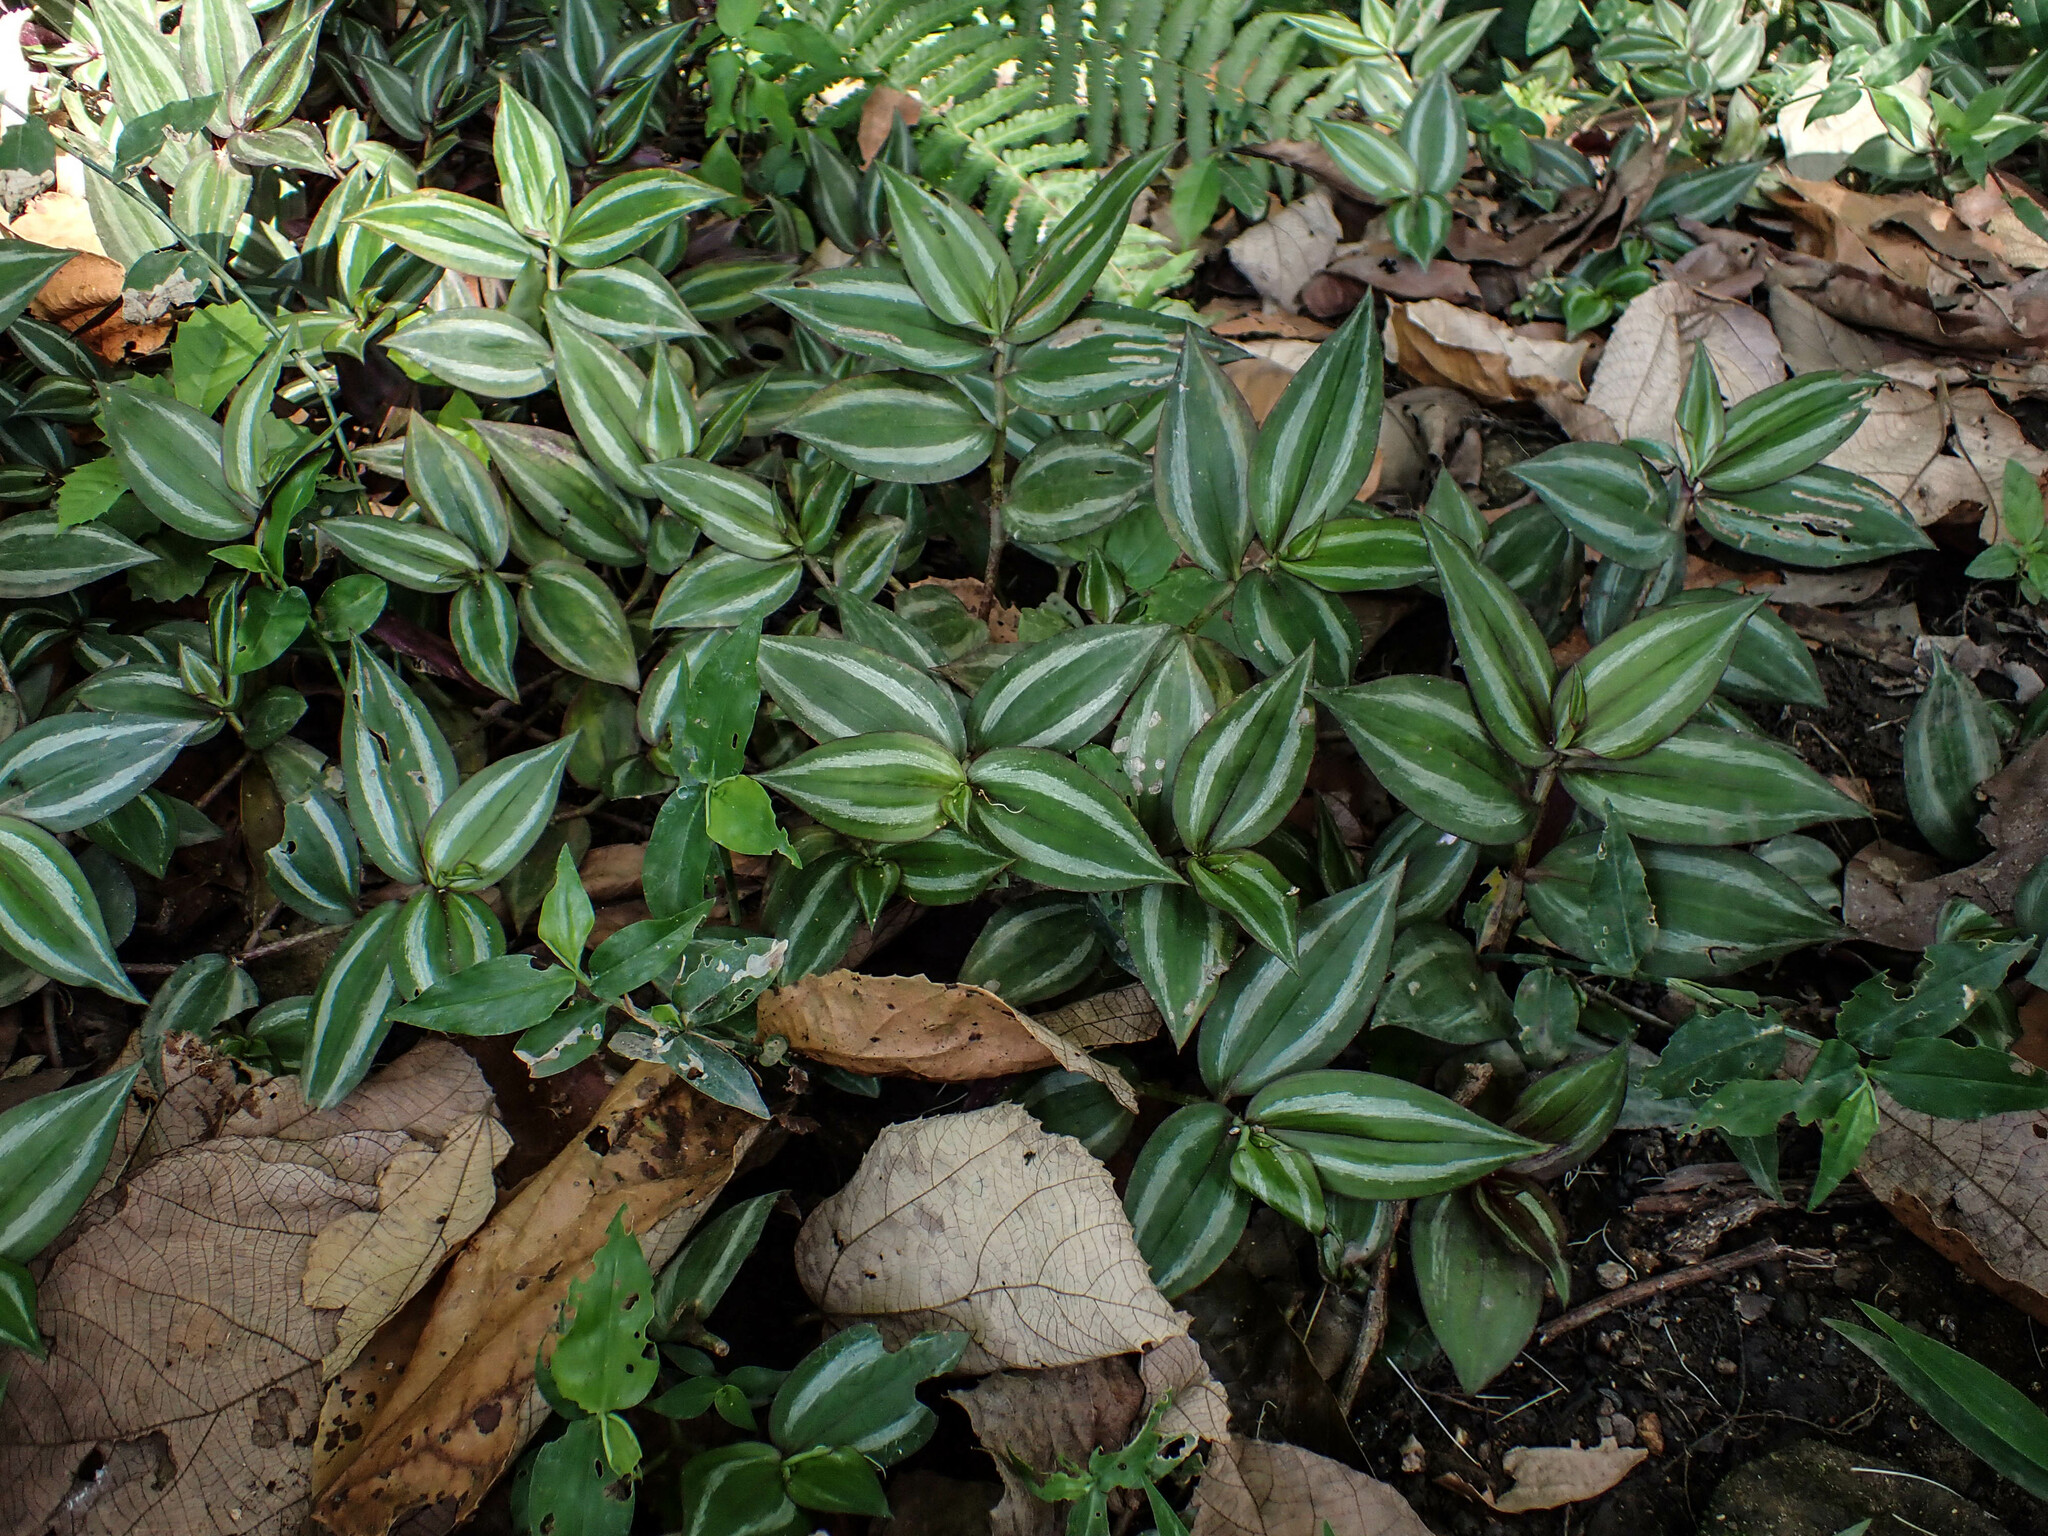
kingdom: Plantae
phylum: Tracheophyta
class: Liliopsida
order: Commelinales
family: Commelinaceae
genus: Tradescantia
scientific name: Tradescantia zebrina
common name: Inchplant
